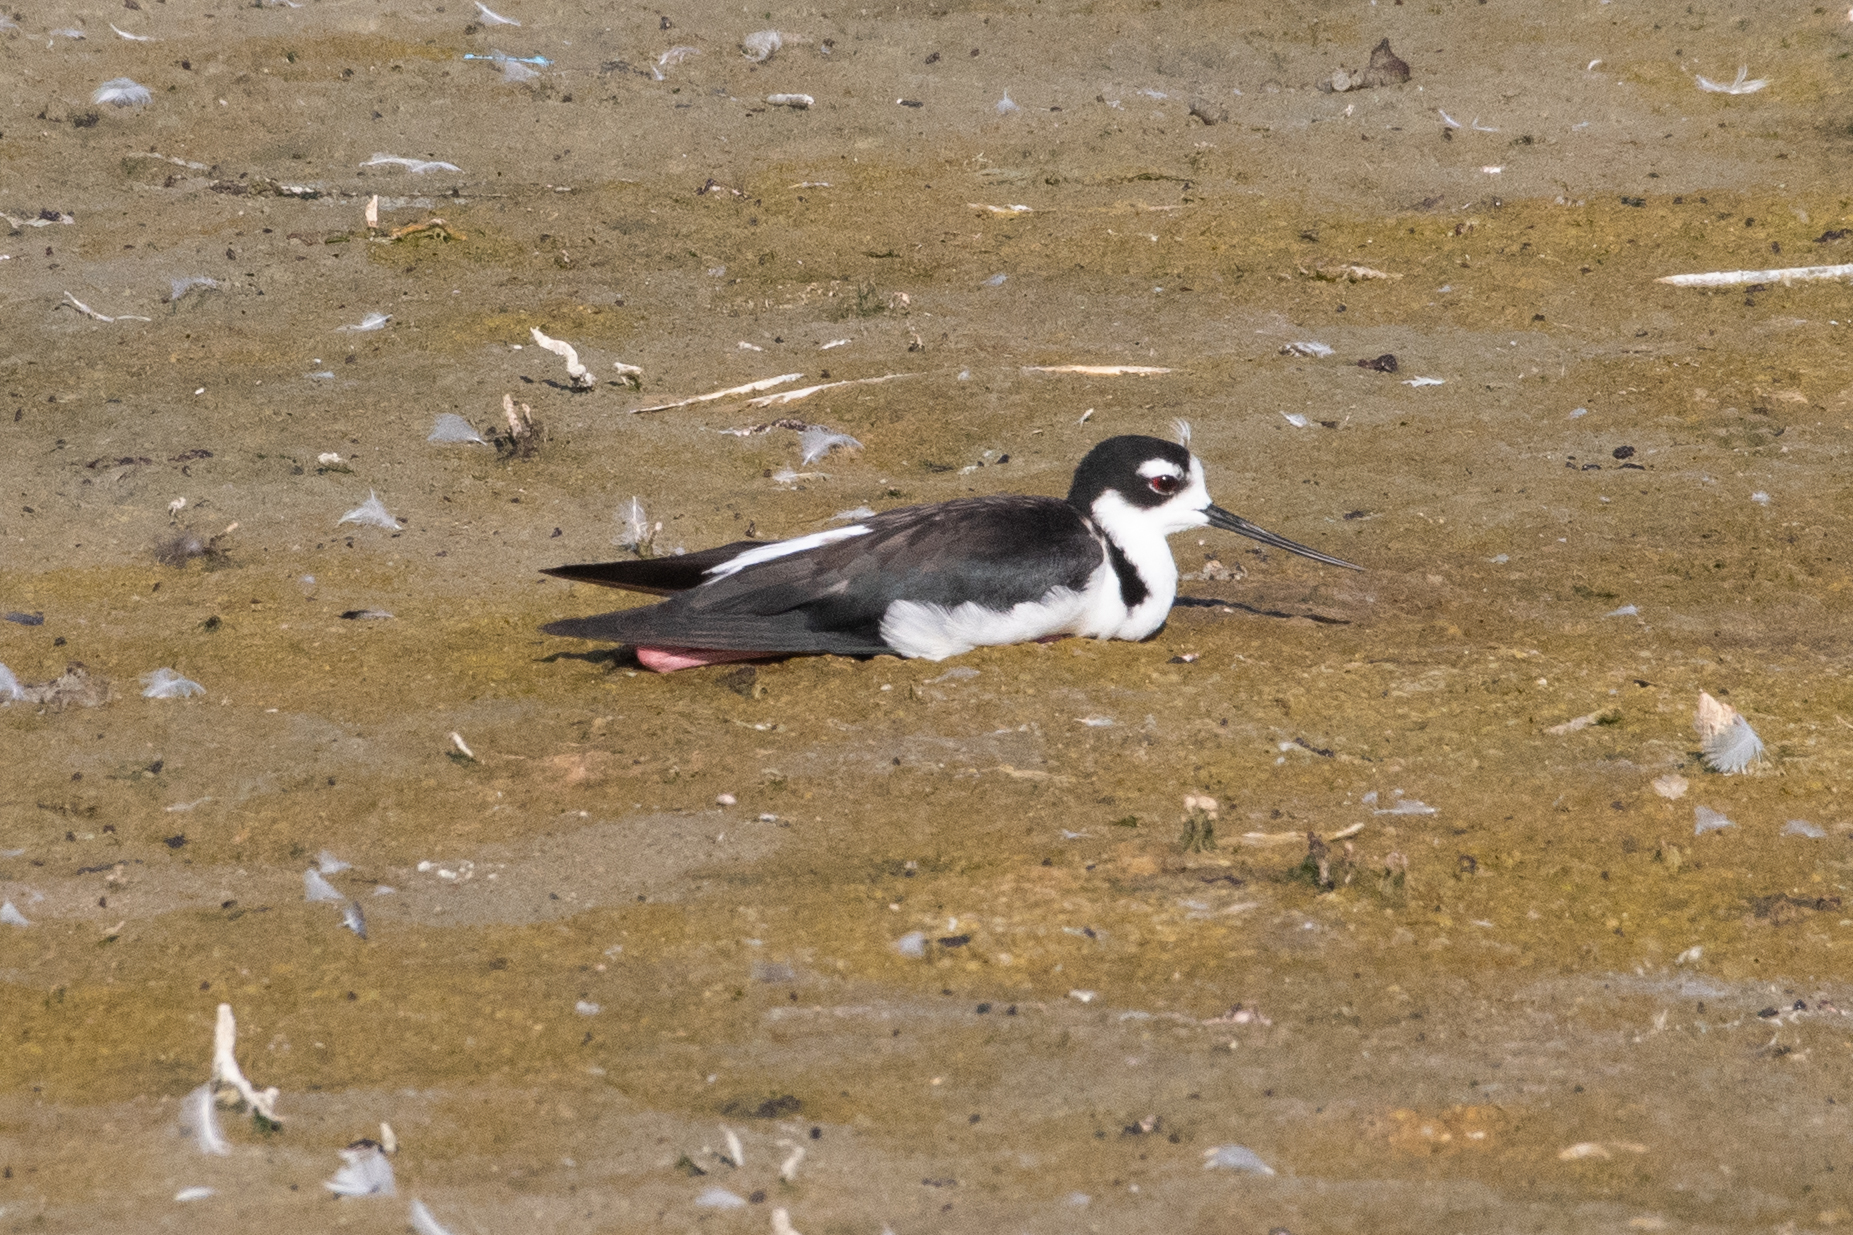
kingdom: Animalia
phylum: Chordata
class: Aves
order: Charadriiformes
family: Recurvirostridae
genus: Himantopus
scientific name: Himantopus mexicanus
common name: Black-necked stilt
